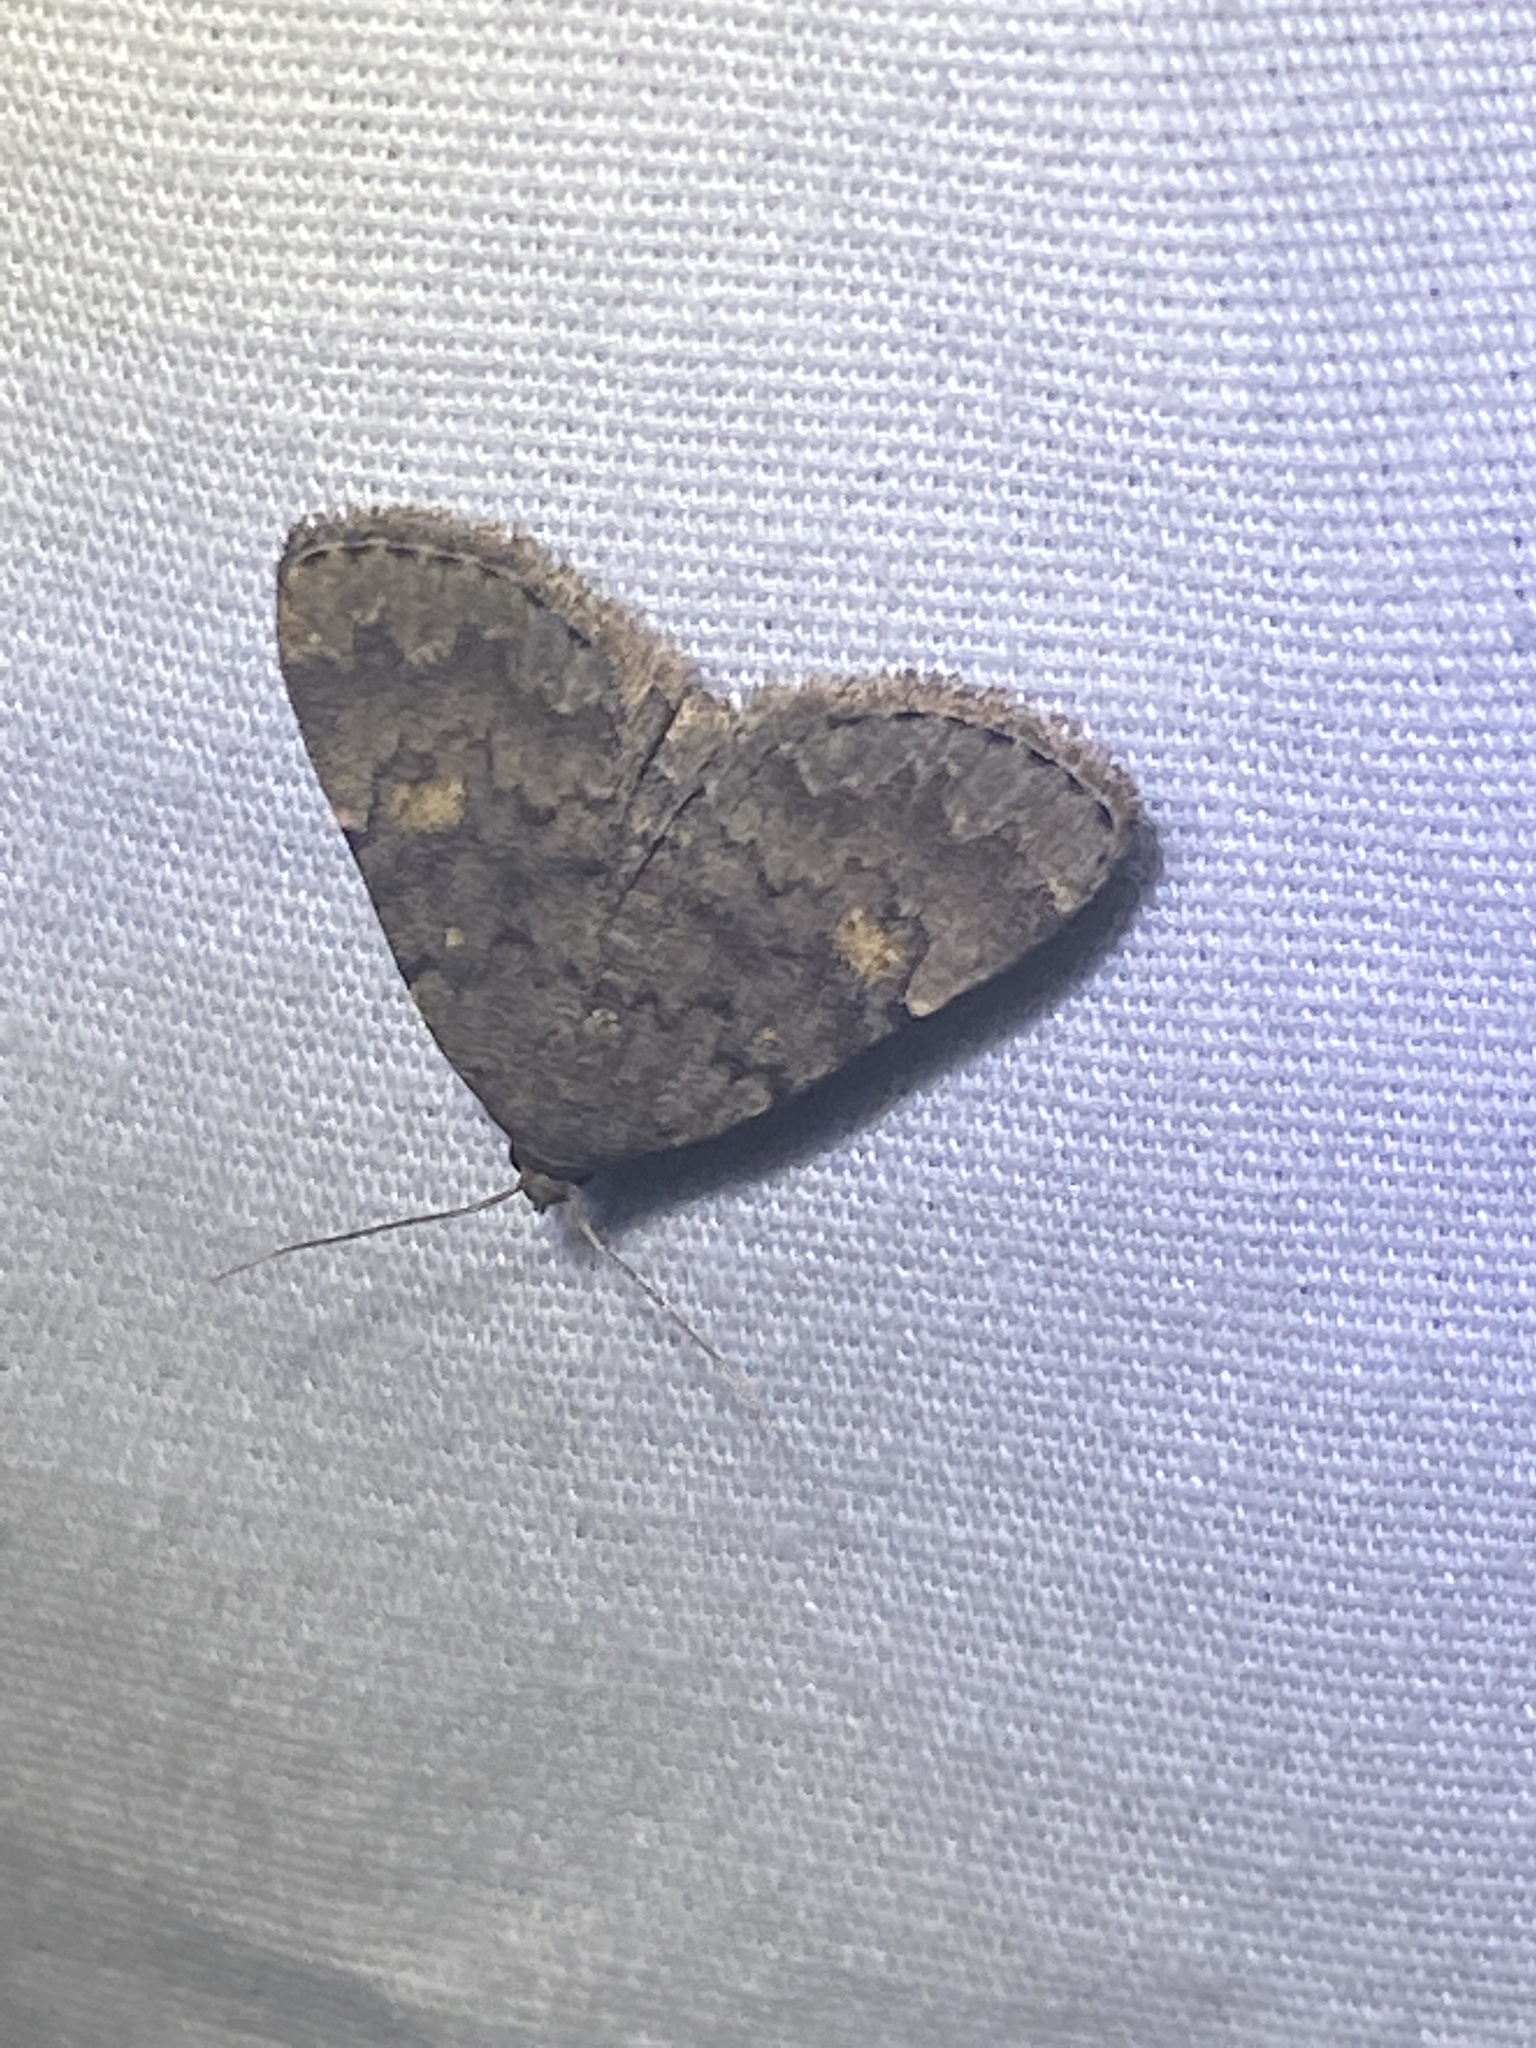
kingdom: Animalia
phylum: Arthropoda
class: Insecta
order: Lepidoptera
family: Erebidae
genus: Idia
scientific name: Idia aemula
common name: Common idia moth
